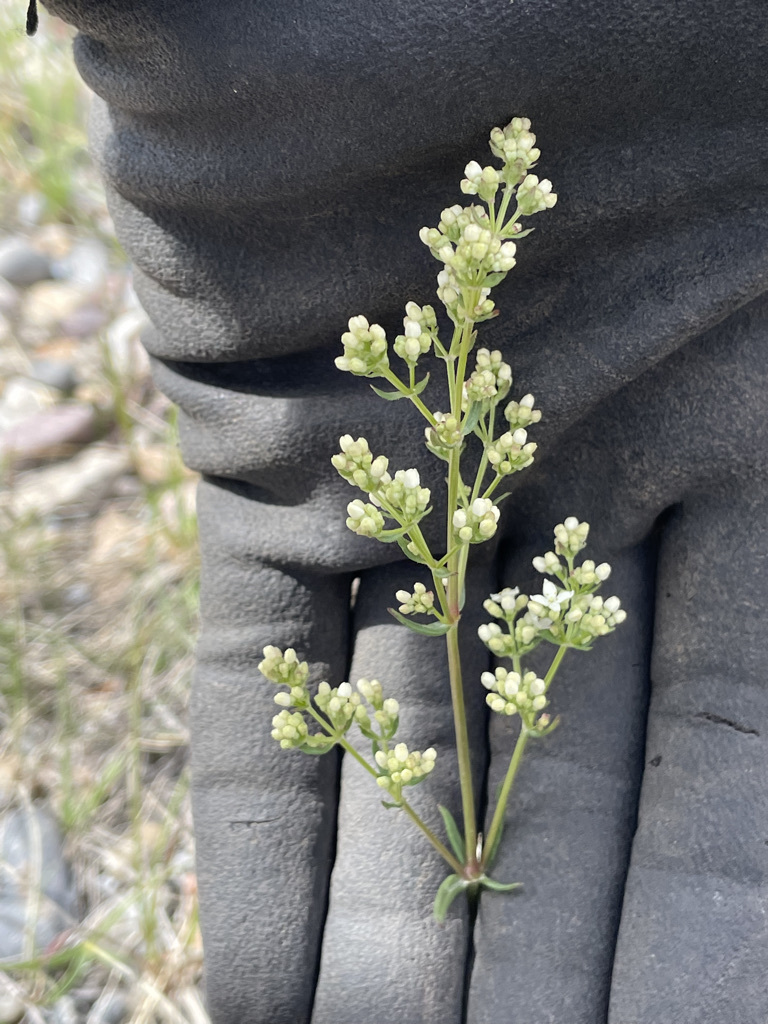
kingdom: Plantae
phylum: Tracheophyta
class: Magnoliopsida
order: Gentianales
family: Rubiaceae
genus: Galium
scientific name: Galium boreale
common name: Northern bedstraw
